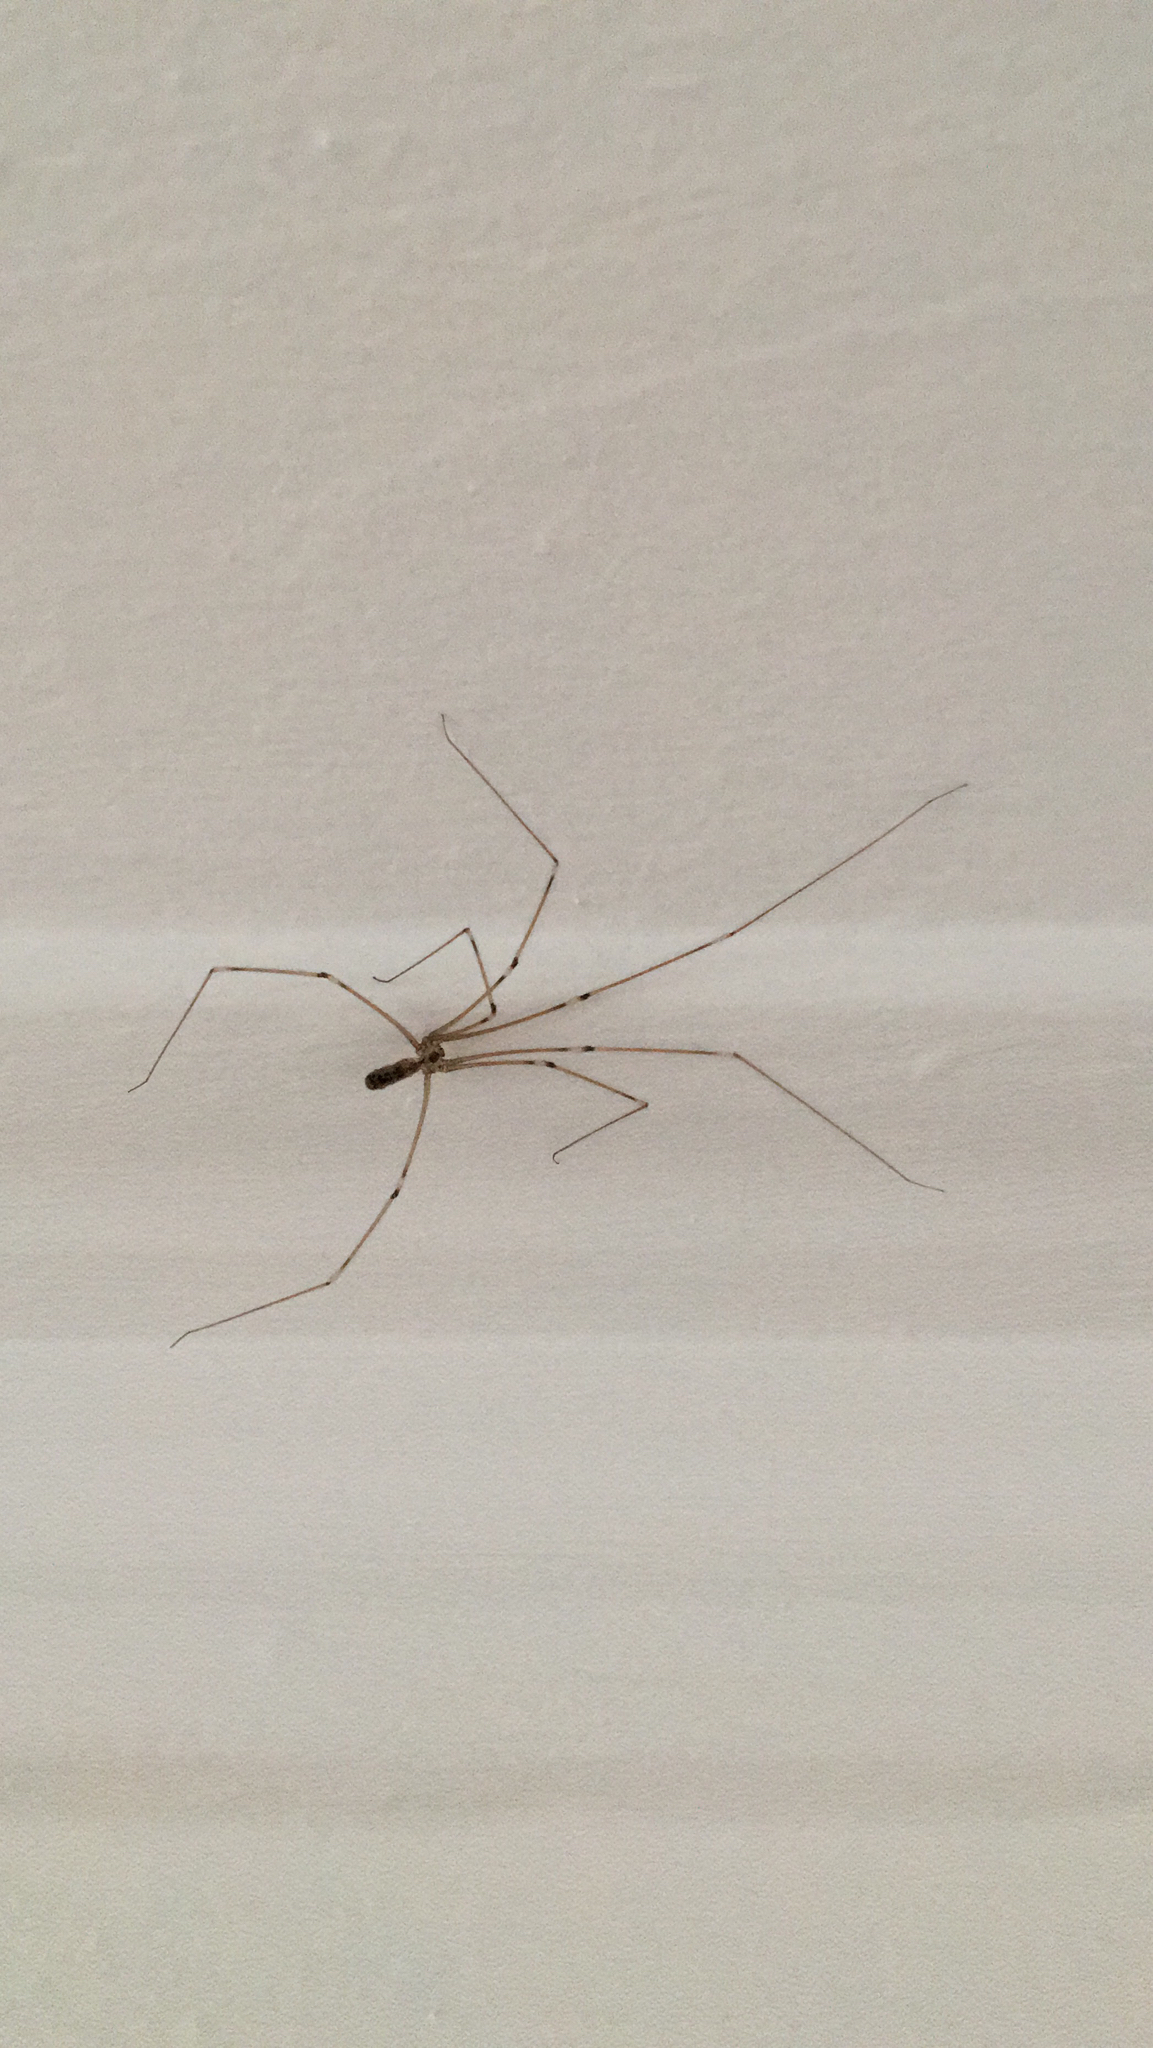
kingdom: Animalia
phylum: Arthropoda
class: Arachnida
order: Araneae
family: Pholcidae
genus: Pholcus
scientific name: Pholcus phalangioides
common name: Longbodied cellar spider
